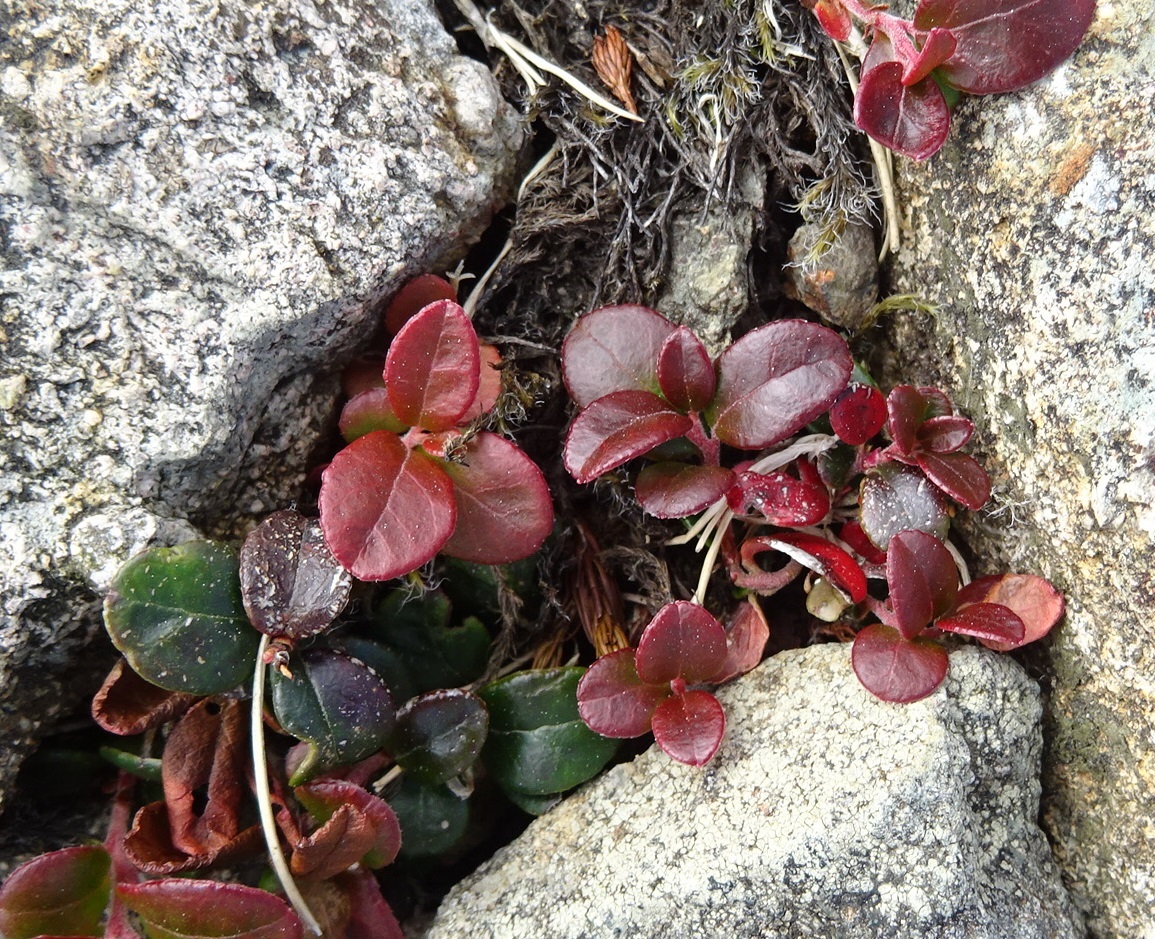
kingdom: Plantae
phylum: Tracheophyta
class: Magnoliopsida
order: Ericales
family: Ericaceae
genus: Vaccinium
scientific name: Vaccinium vitis-idaea
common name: Cowberry
